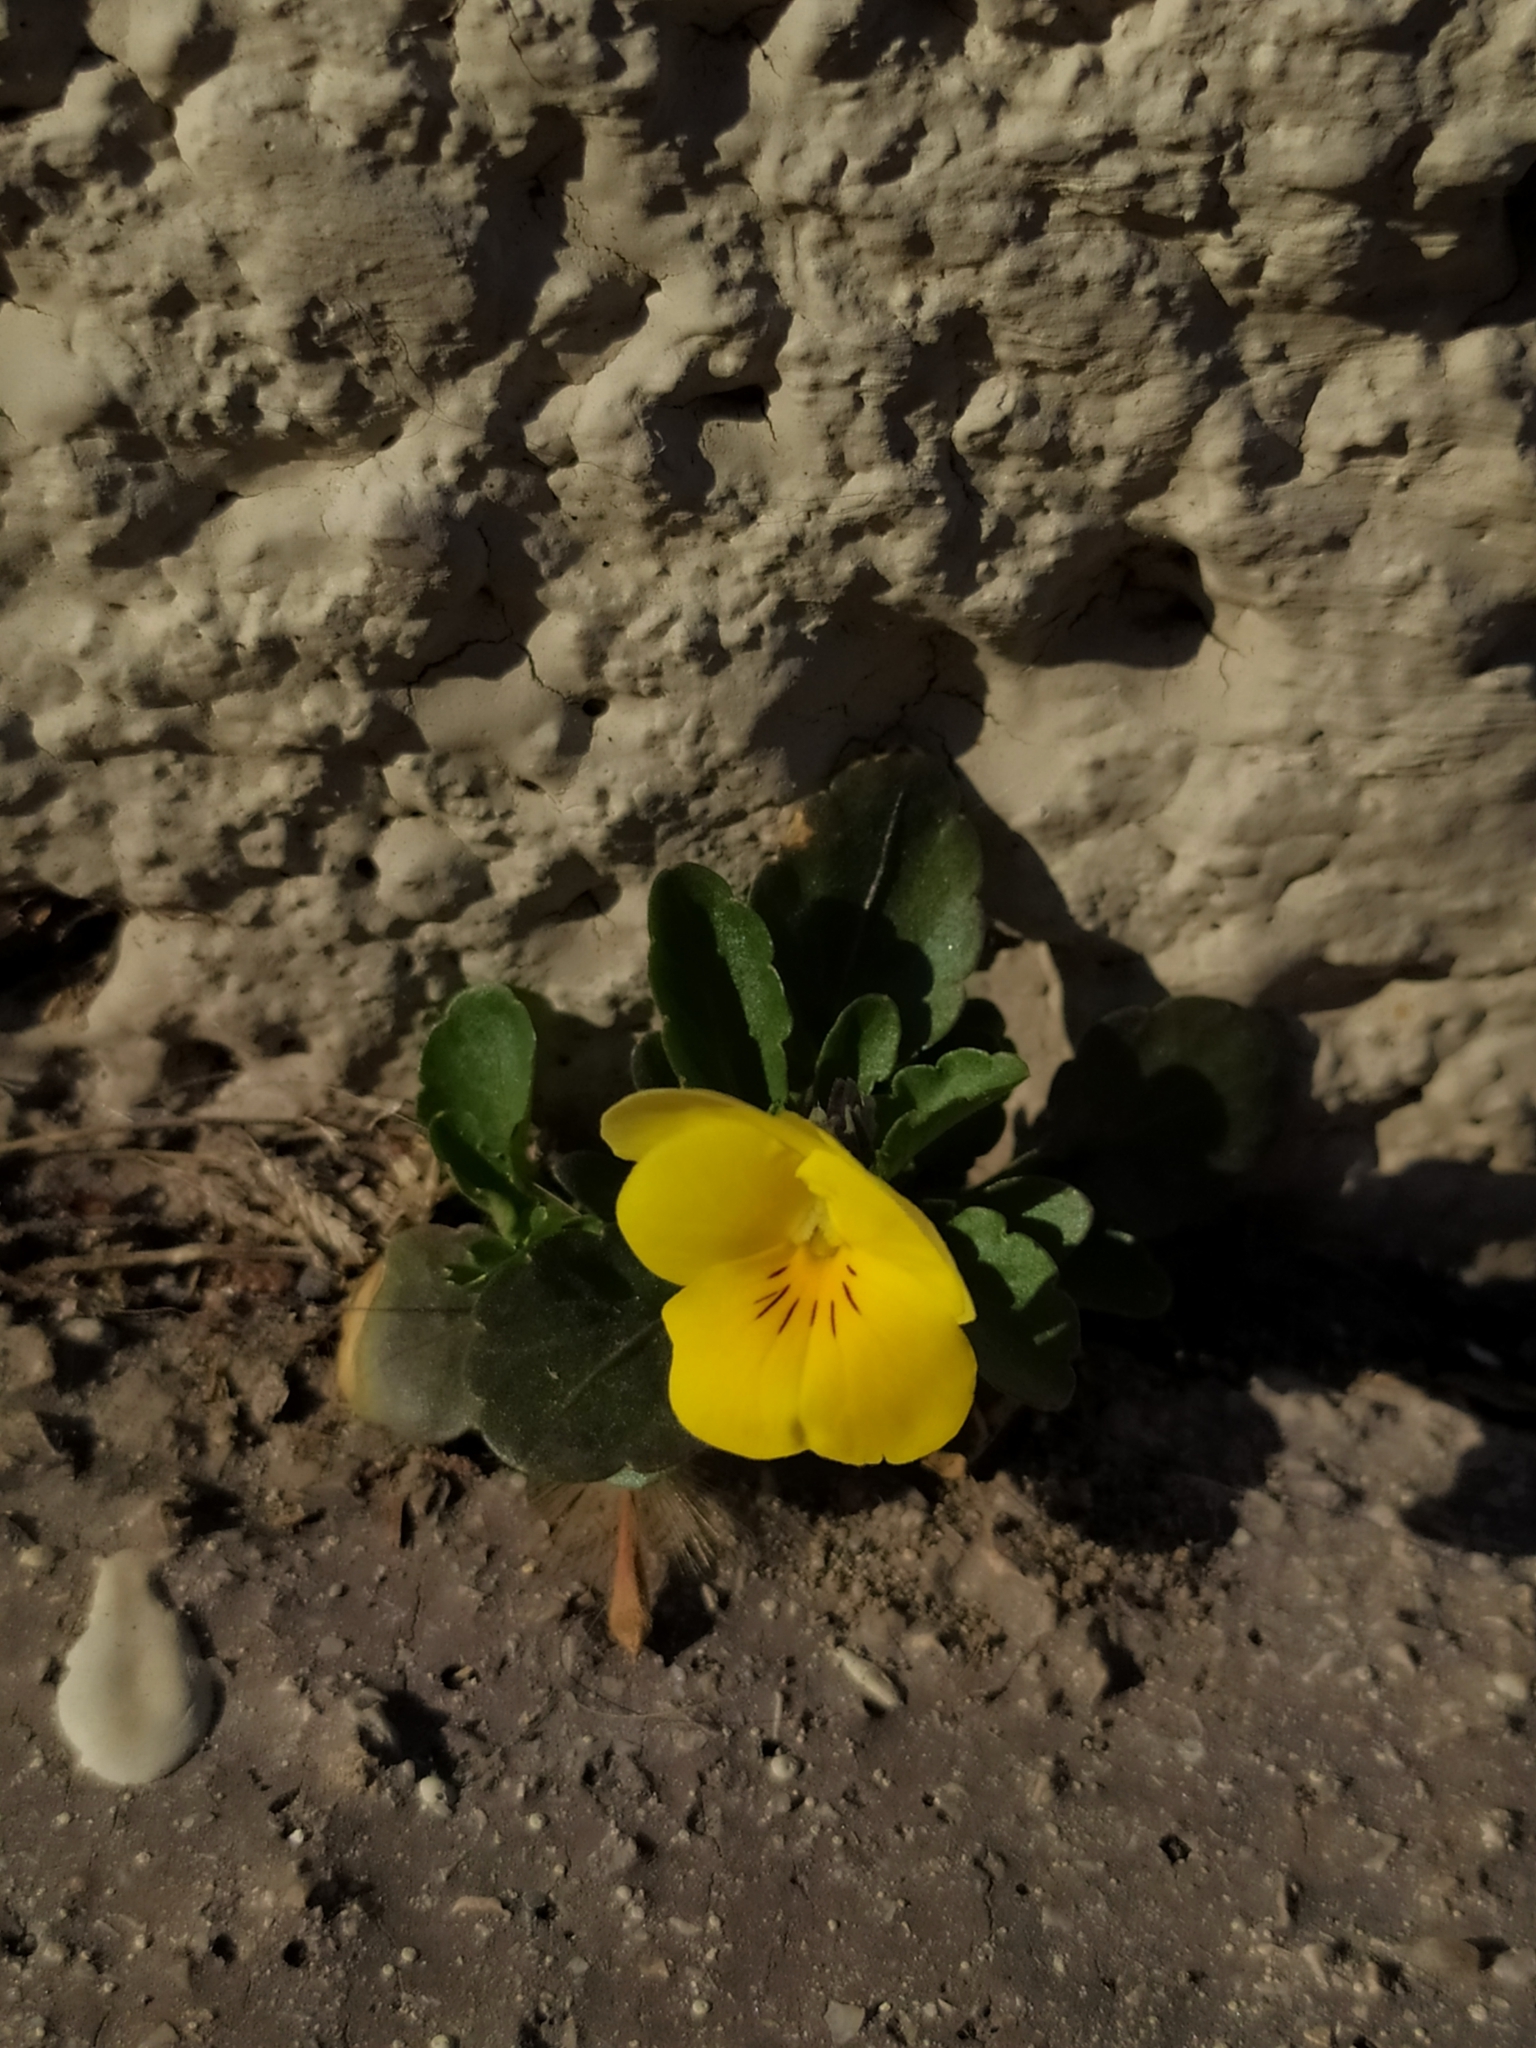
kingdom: Plantae
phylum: Tracheophyta
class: Magnoliopsida
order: Malpighiales
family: Violaceae
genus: Viola
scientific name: Viola wittrockiana
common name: Garden pansy
